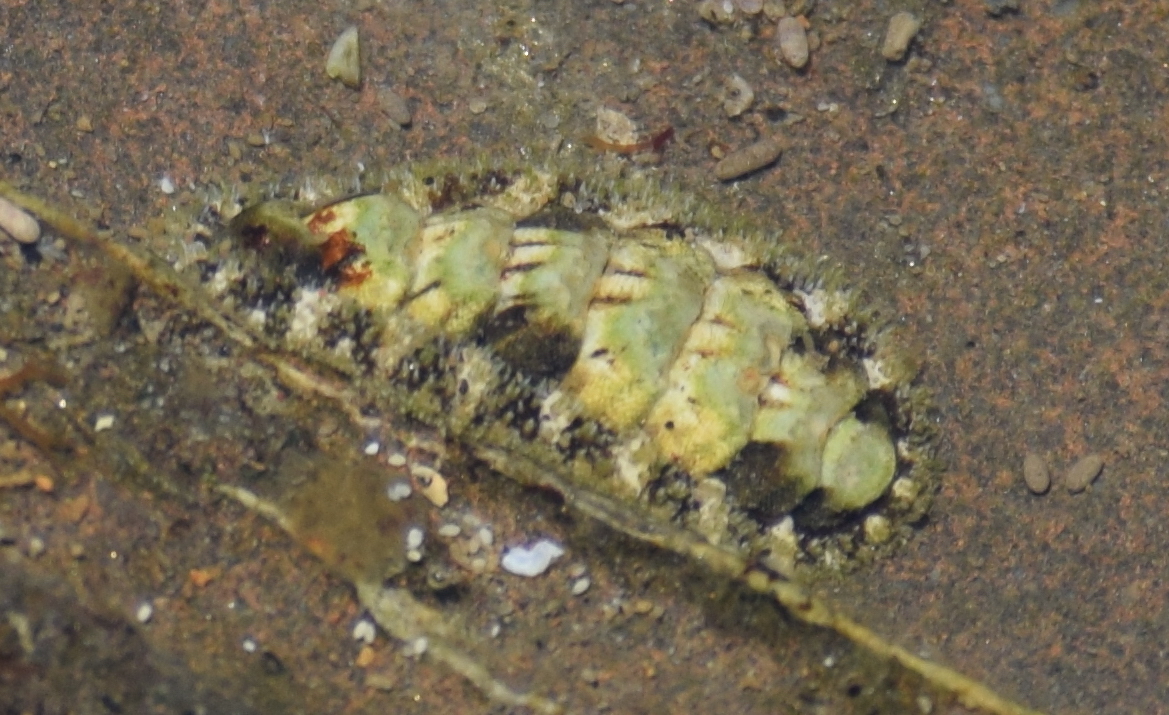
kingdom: Animalia
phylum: Mollusca
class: Polyplacophora
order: Chitonida
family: Tonicellidae
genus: Nuttallina
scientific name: Nuttallina californica
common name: California nuttall chiton
